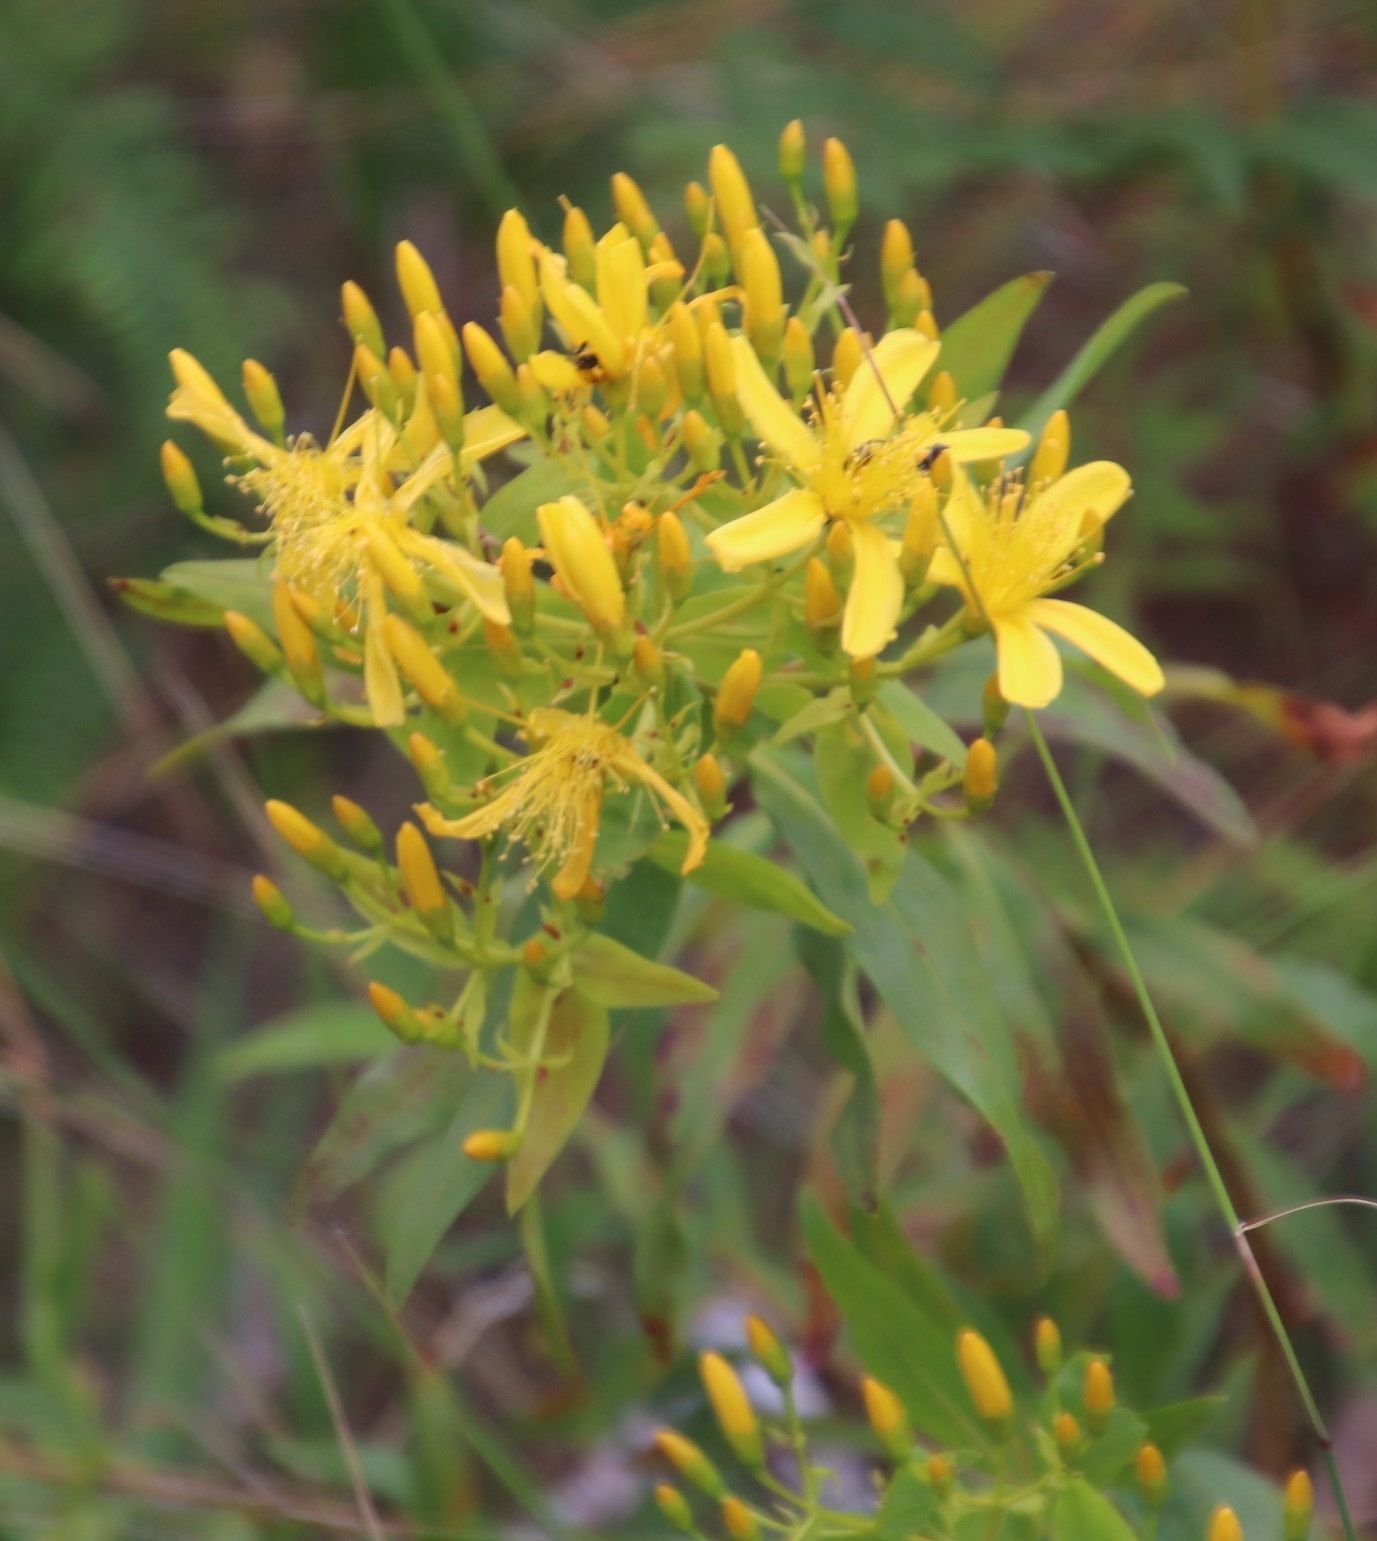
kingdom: Plantae
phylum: Tracheophyta
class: Magnoliopsida
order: Malpighiales
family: Hypericaceae
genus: Hypericum
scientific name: Hypericum canariense
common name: Canary island st. johnswort
